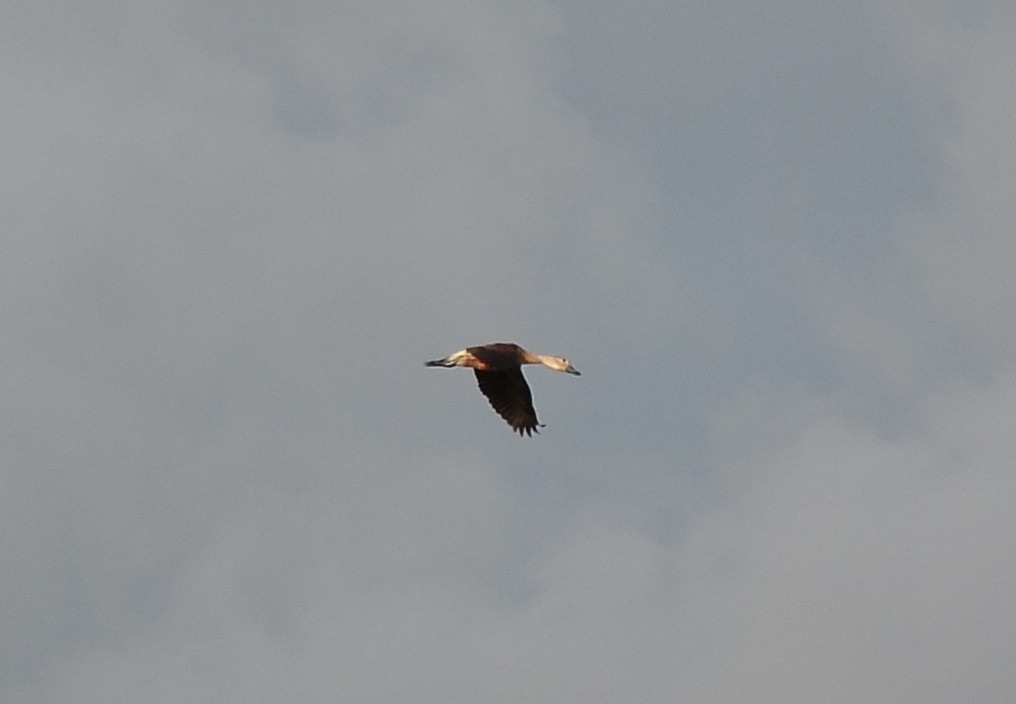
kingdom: Animalia
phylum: Chordata
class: Aves
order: Anseriformes
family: Anatidae
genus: Dendrocygna
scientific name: Dendrocygna javanica
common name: Lesser whistling-duck
